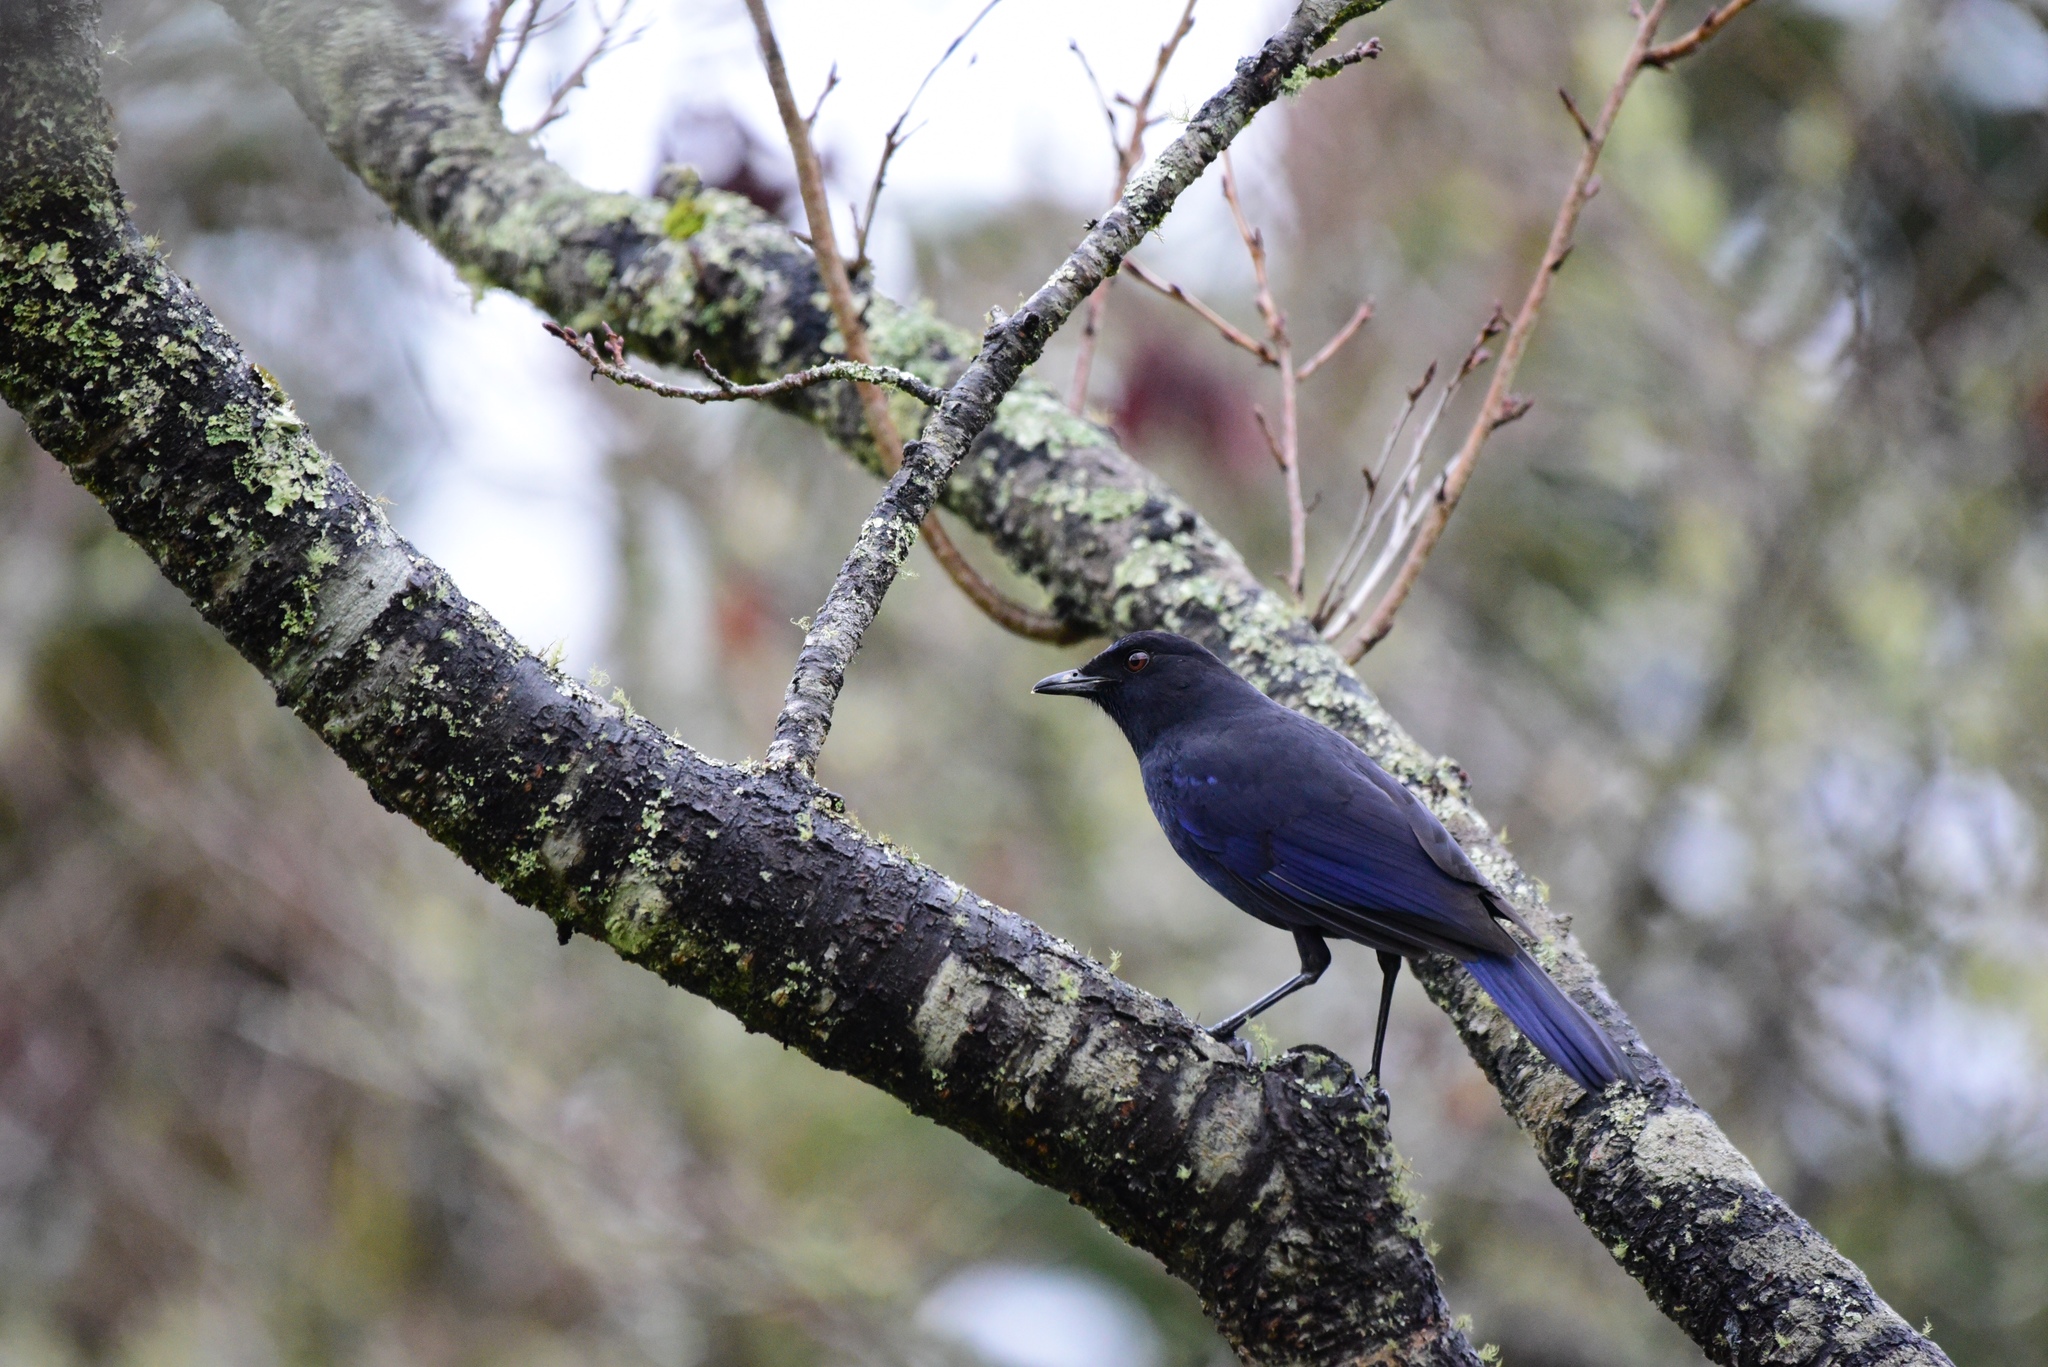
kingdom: Animalia
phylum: Chordata
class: Aves
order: Passeriformes
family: Muscicapidae
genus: Myophonus
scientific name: Myophonus insularis
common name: Taiwan whistling-thrush
